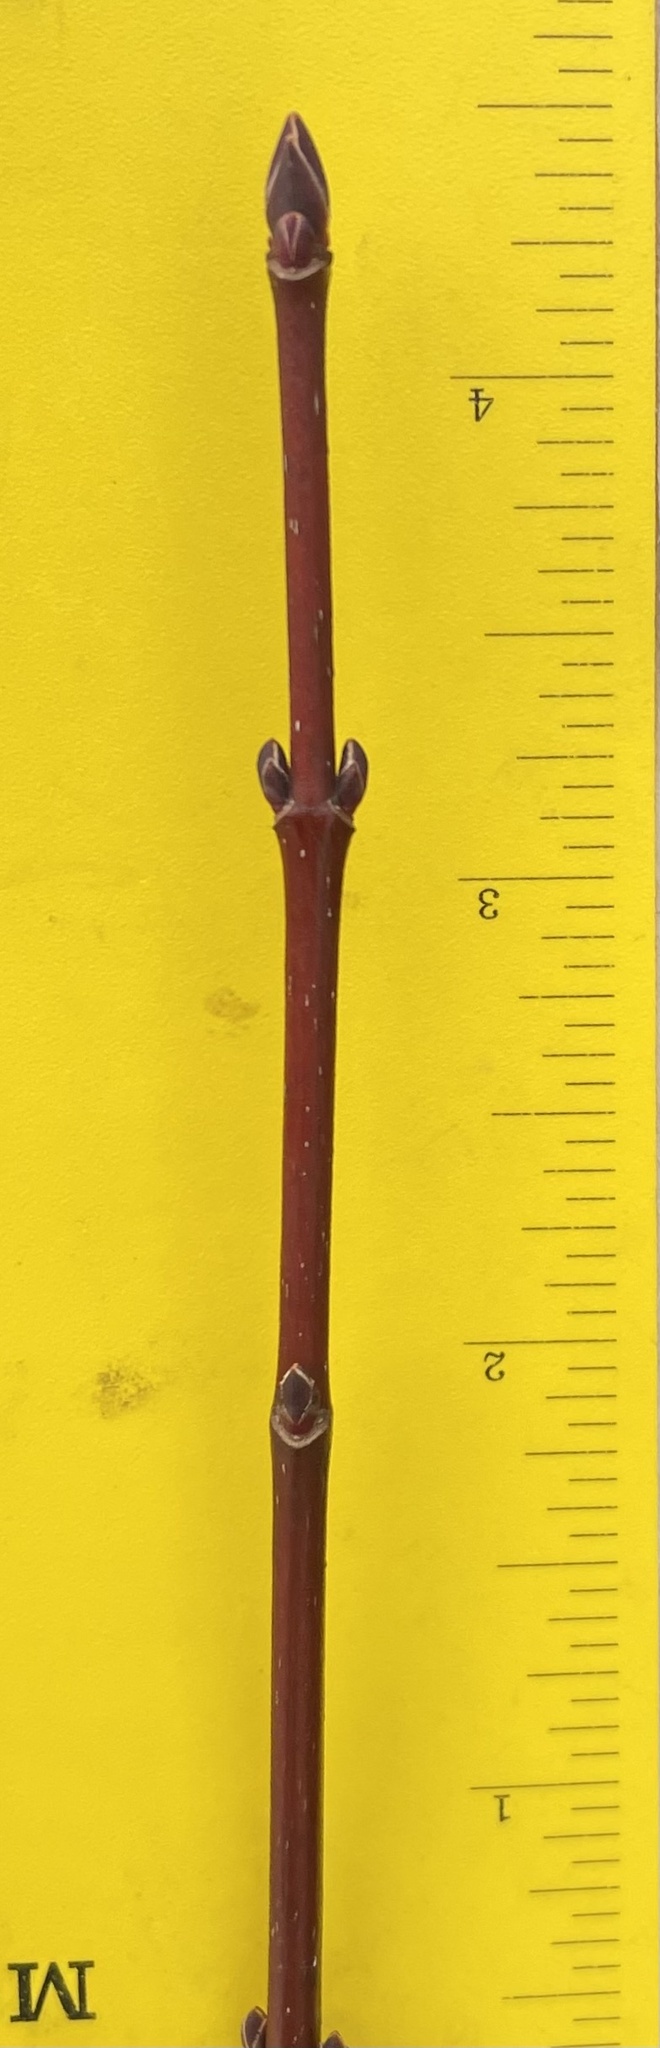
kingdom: Plantae
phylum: Tracheophyta
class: Magnoliopsida
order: Sapindales
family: Sapindaceae
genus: Acer
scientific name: Acer rubrum
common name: Red maple
